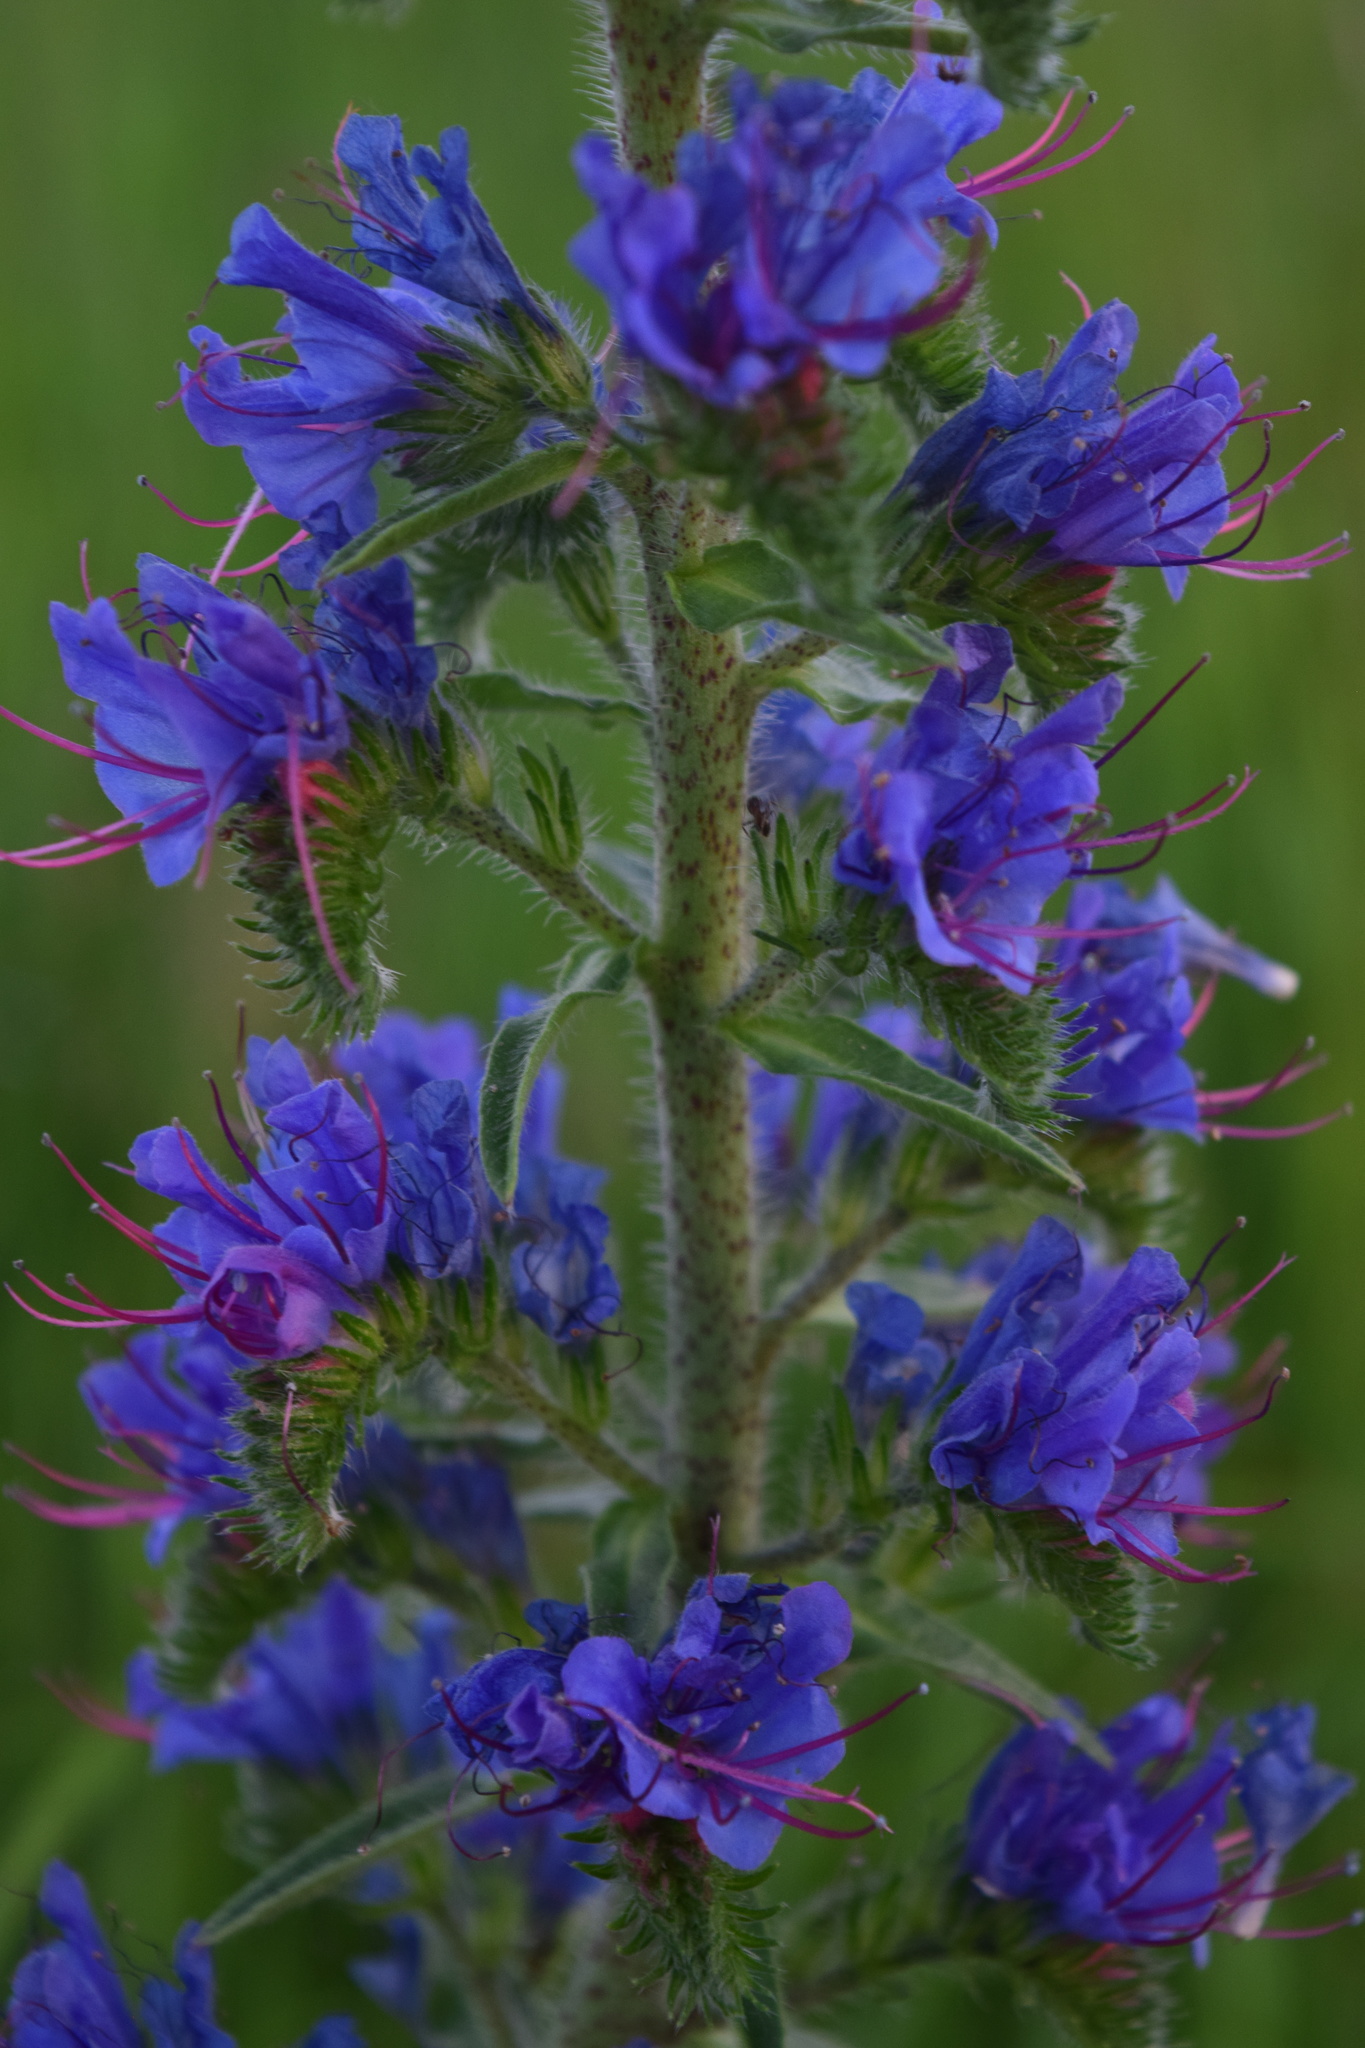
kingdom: Plantae
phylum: Tracheophyta
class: Magnoliopsida
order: Boraginales
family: Boraginaceae
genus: Echium
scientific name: Echium vulgare
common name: Common viper's bugloss
